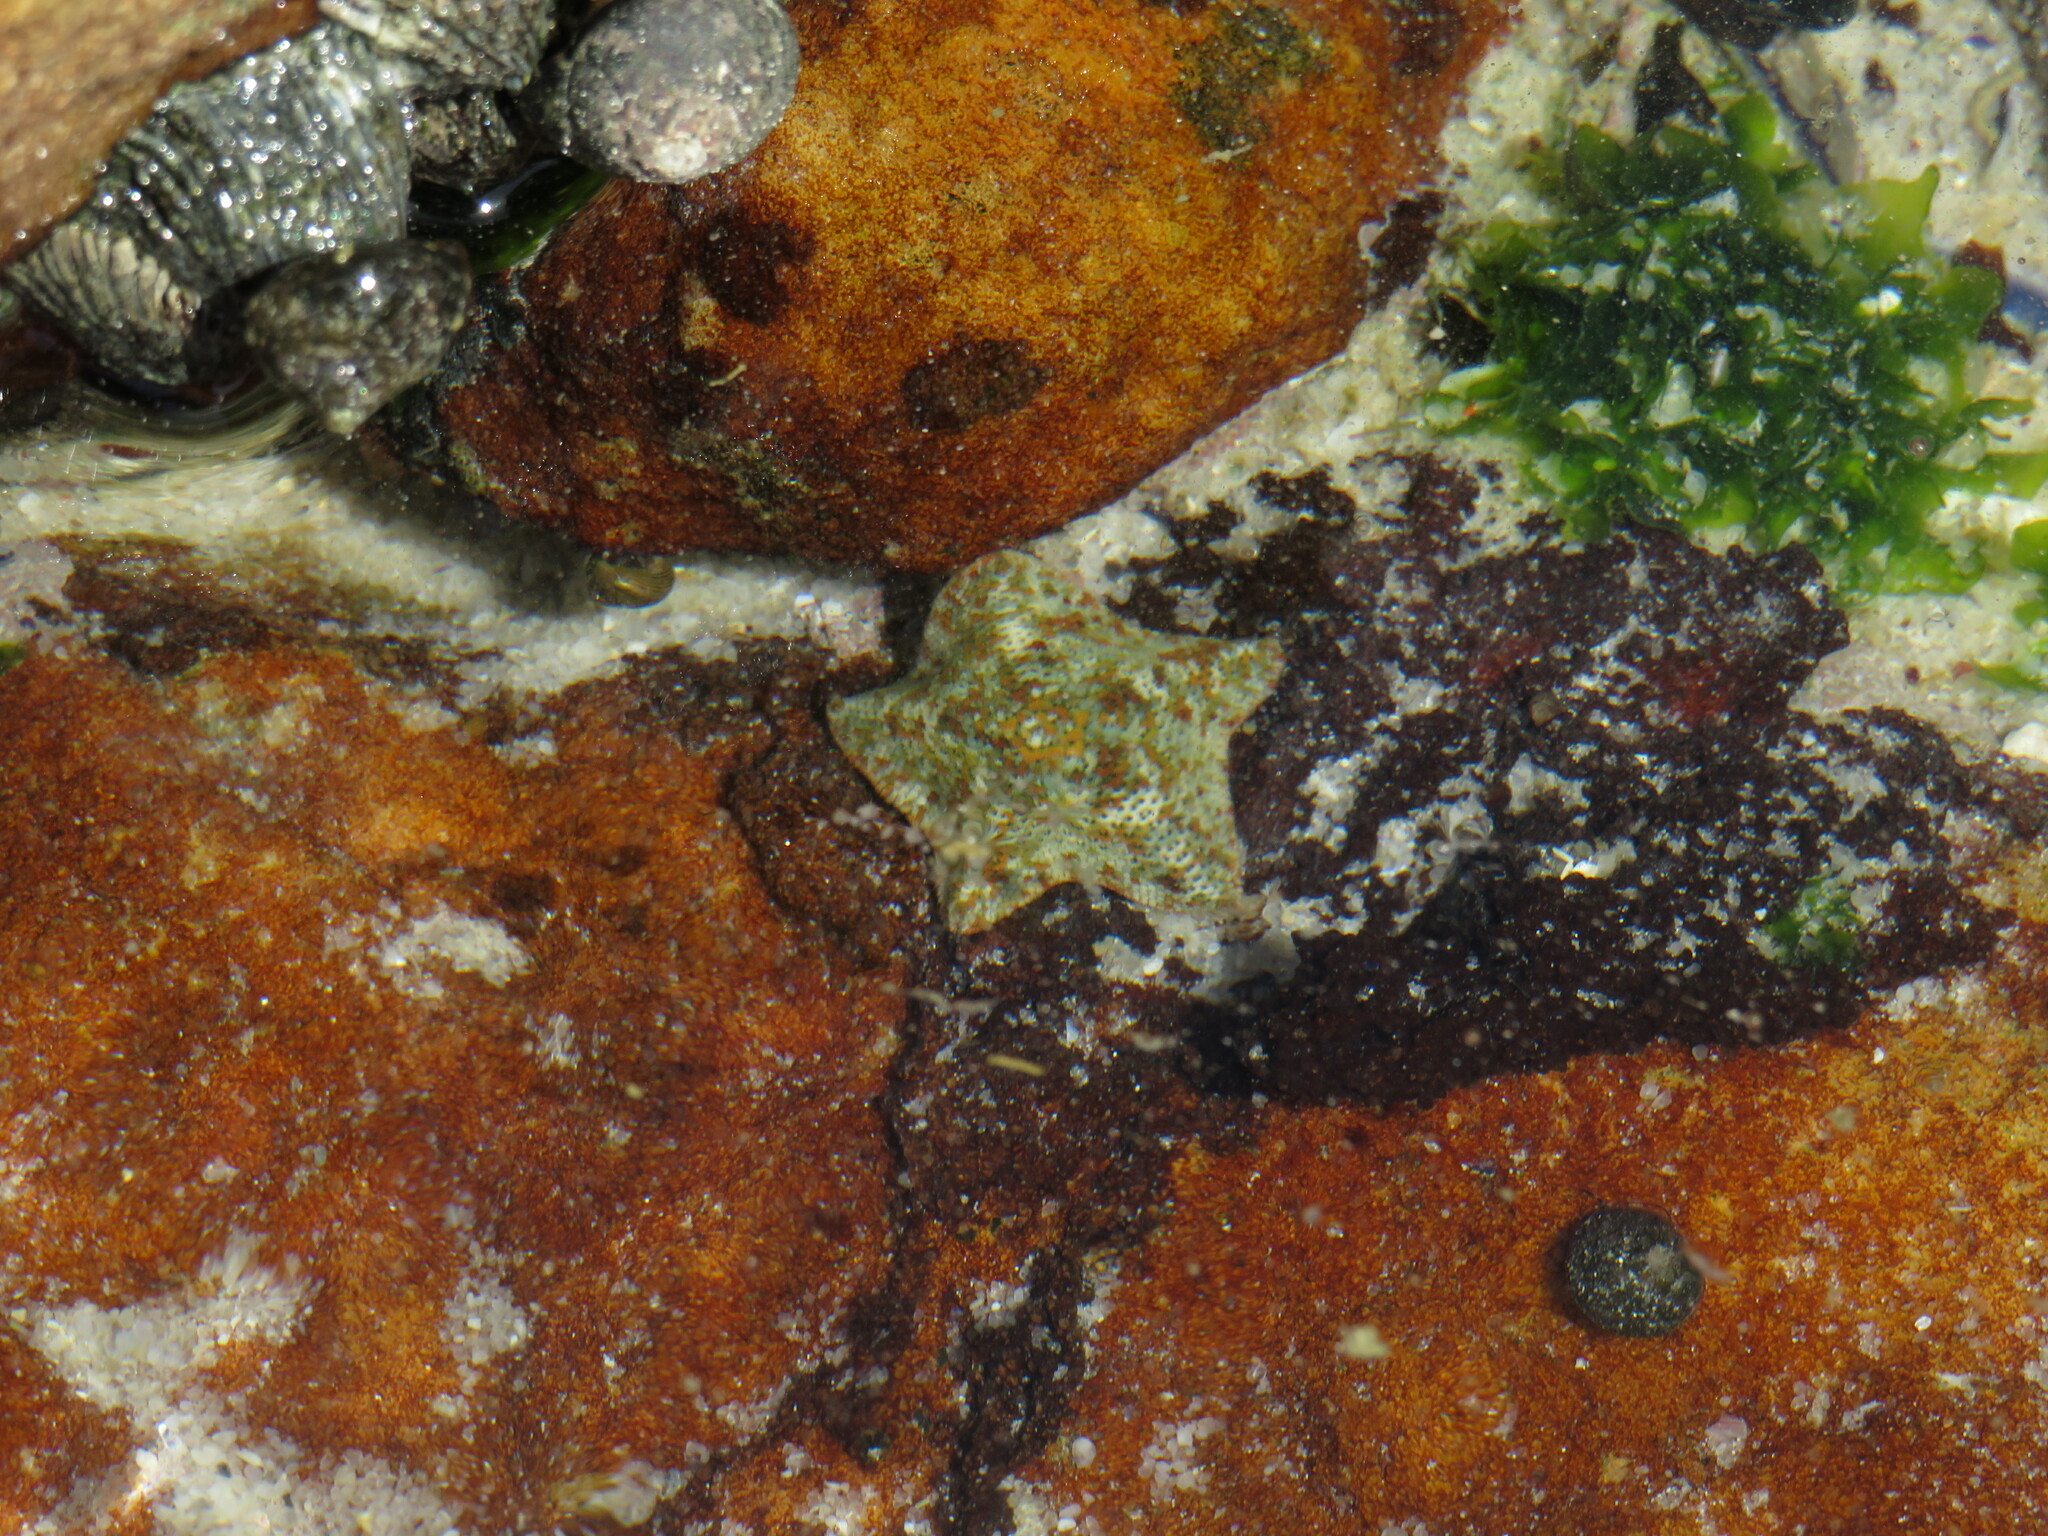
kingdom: Animalia
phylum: Echinodermata
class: Asteroidea
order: Valvatida
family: Asterinidae
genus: Parvulastra
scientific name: Parvulastra exigua
